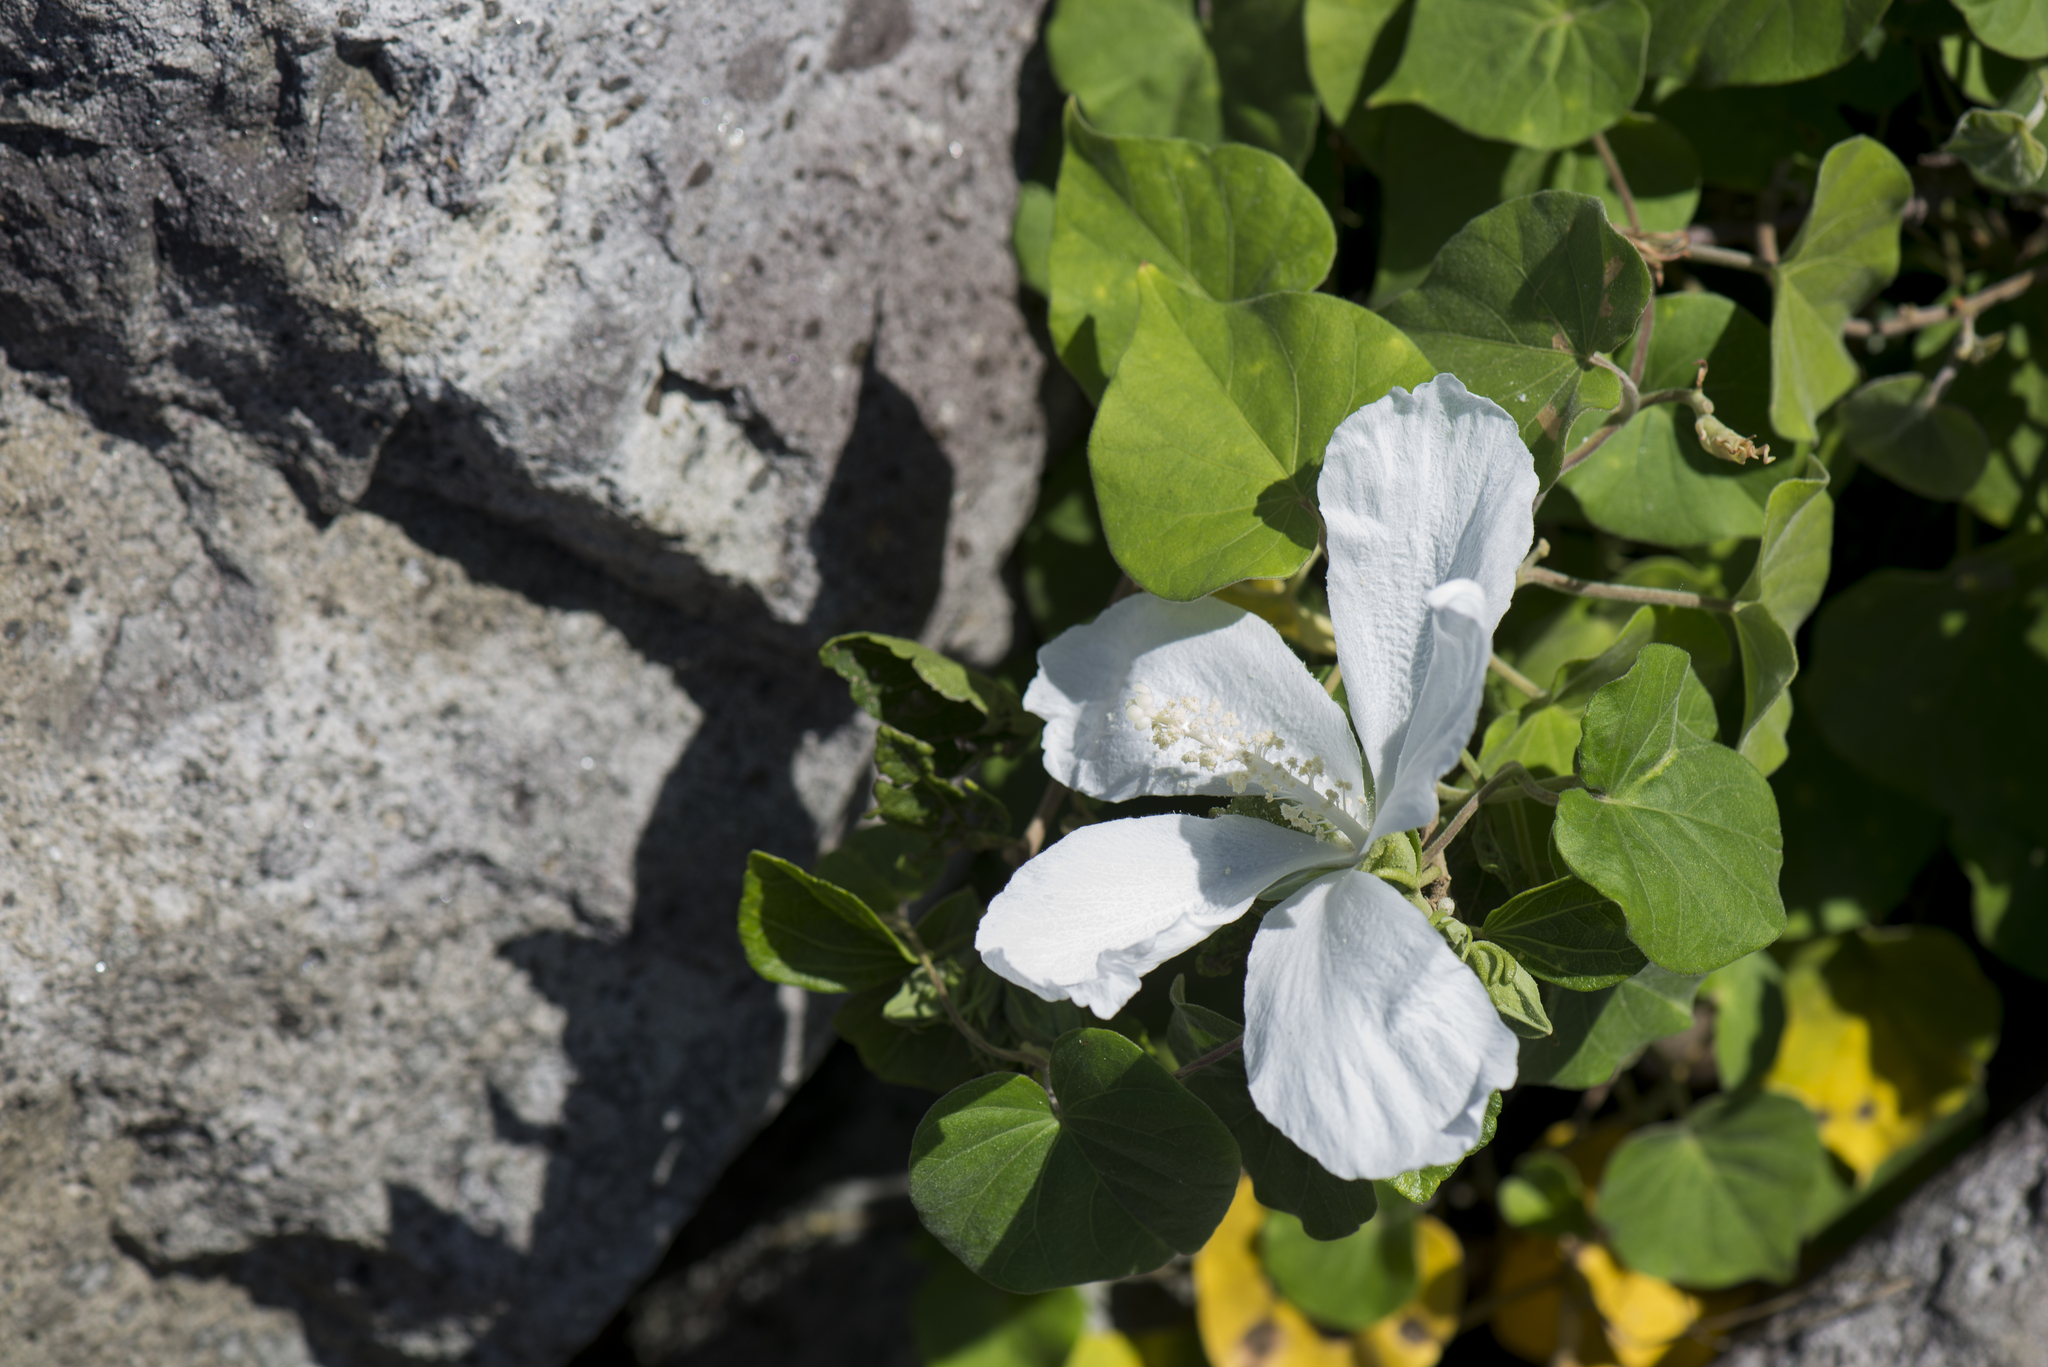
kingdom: Plantae
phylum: Tracheophyta
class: Magnoliopsida
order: Malvales
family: Malvaceae
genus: Hibiscus
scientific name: Hibiscus syriacus
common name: Syrian ketmia
